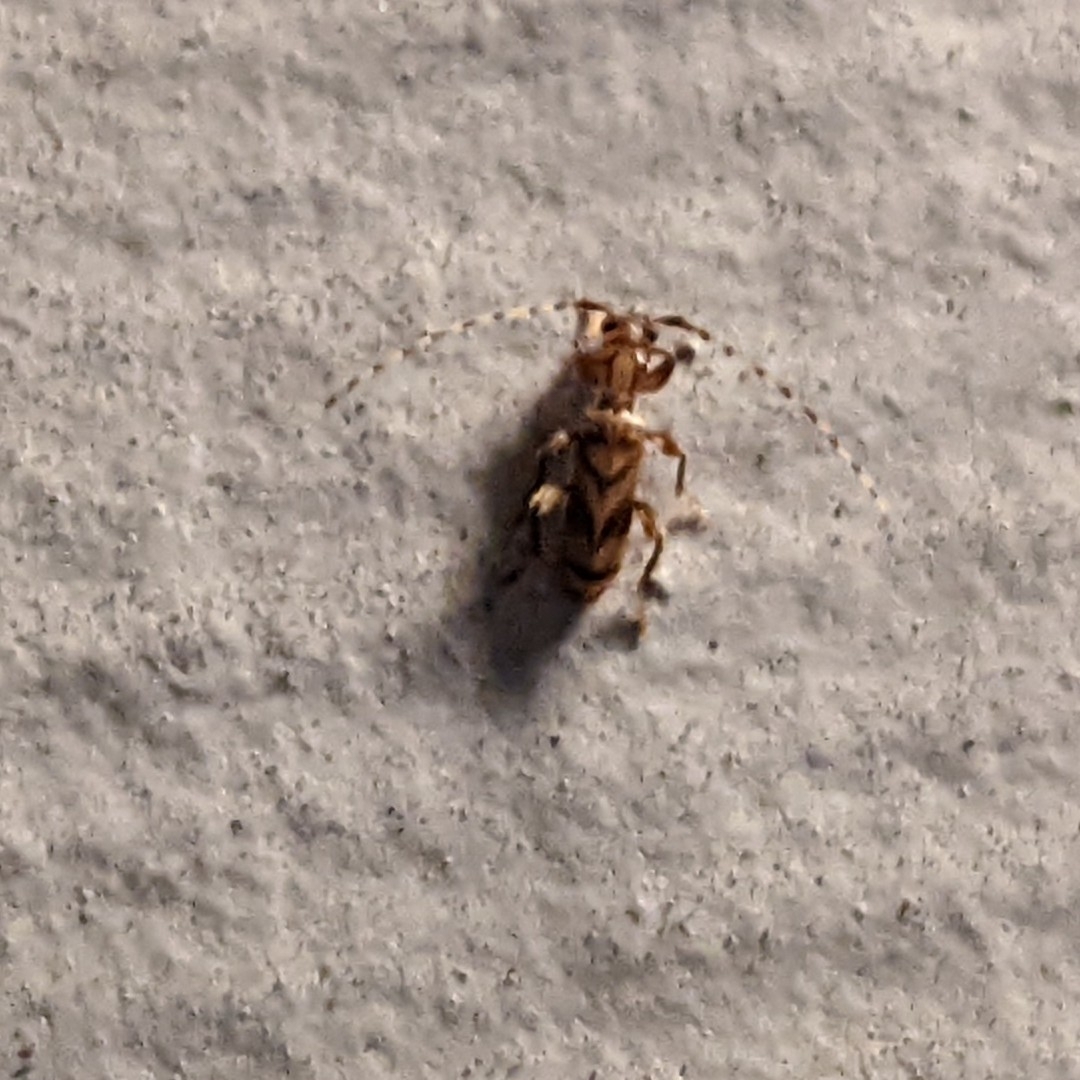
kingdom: Animalia
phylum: Arthropoda
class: Insecta
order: Coleoptera
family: Cerambycidae
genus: Obrium
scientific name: Obrium maculatum
